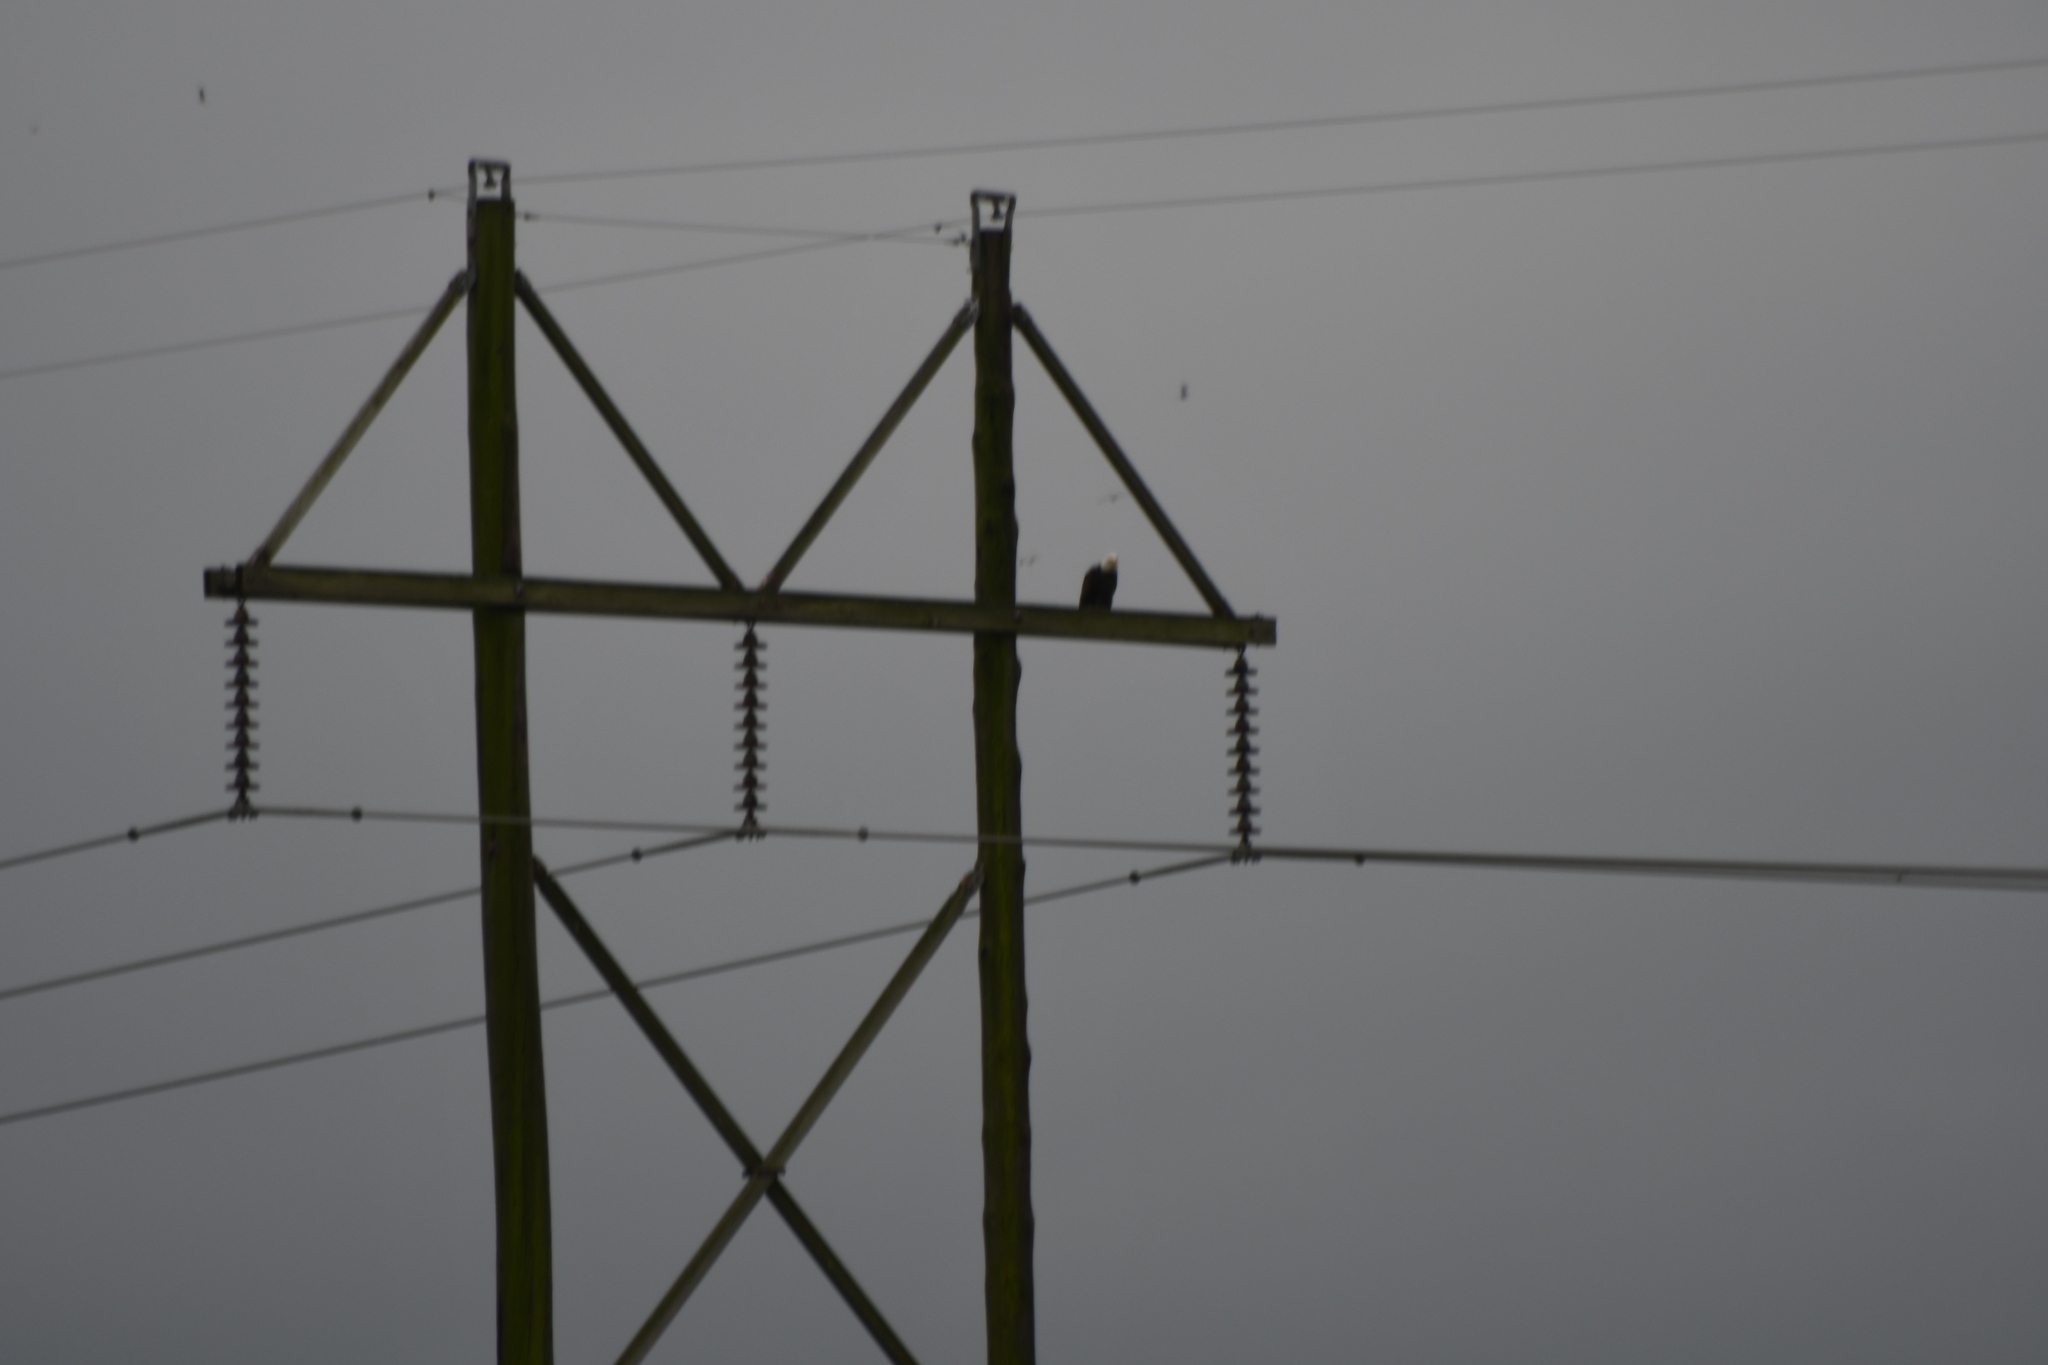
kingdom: Animalia
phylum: Chordata
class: Aves
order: Accipitriformes
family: Accipitridae
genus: Haliaeetus
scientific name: Haliaeetus leucocephalus
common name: Bald eagle
